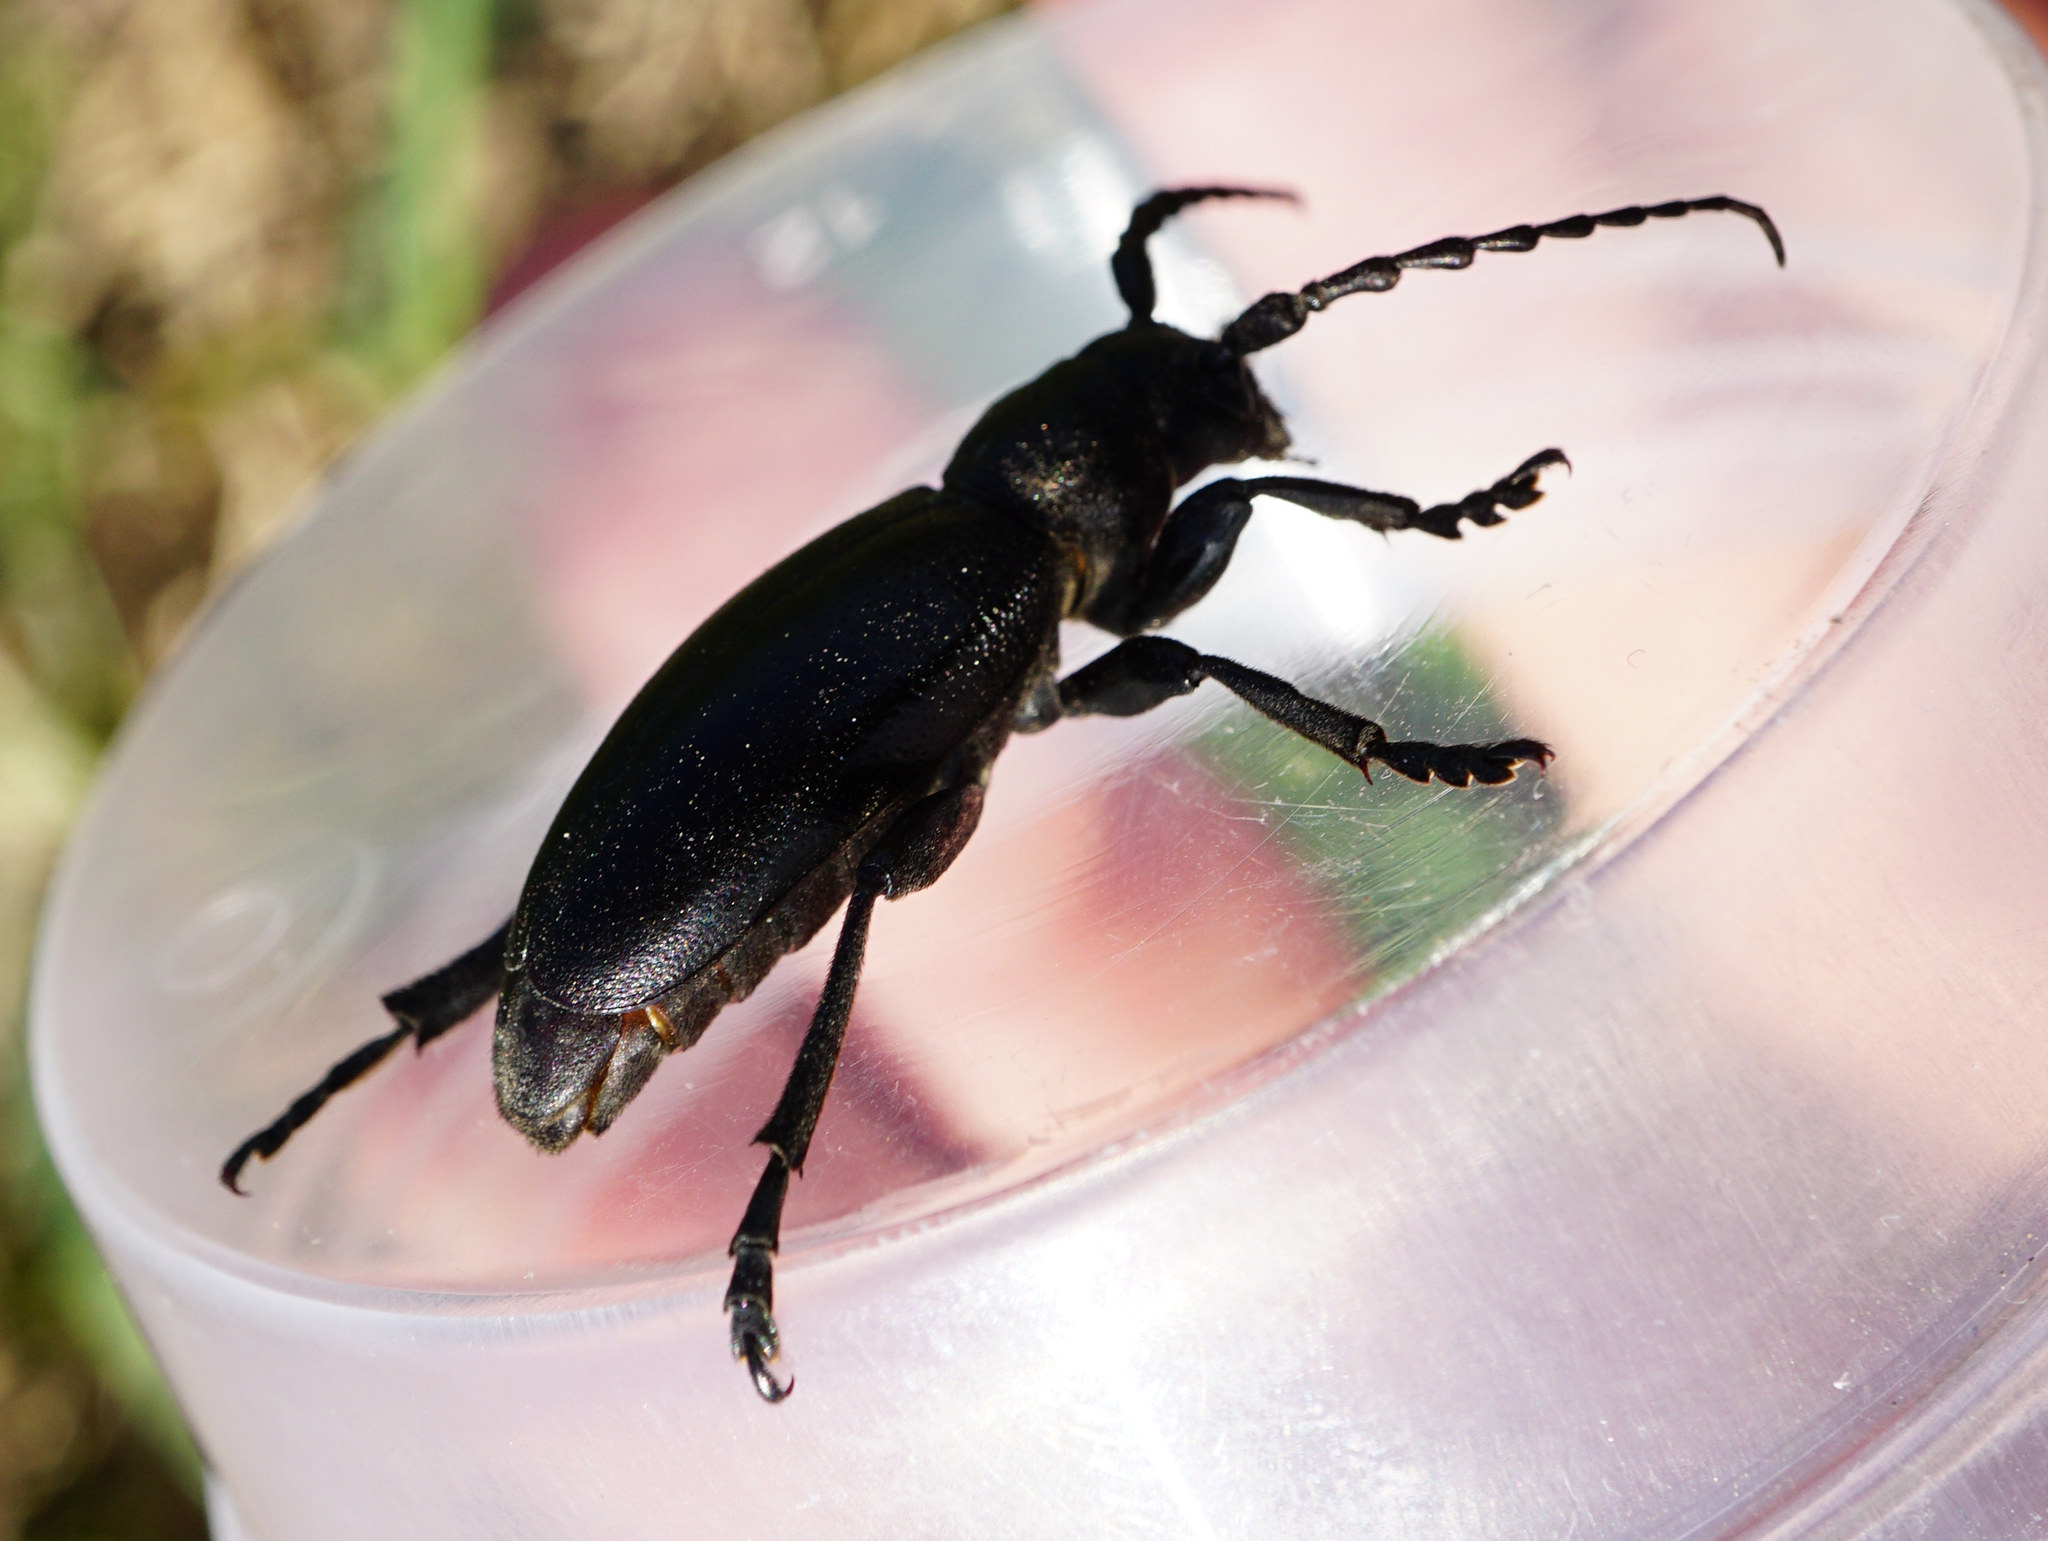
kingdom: Animalia
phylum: Arthropoda
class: Insecta
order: Coleoptera
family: Cerambycidae
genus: Dorcadion
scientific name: Dorcadion aethiops
